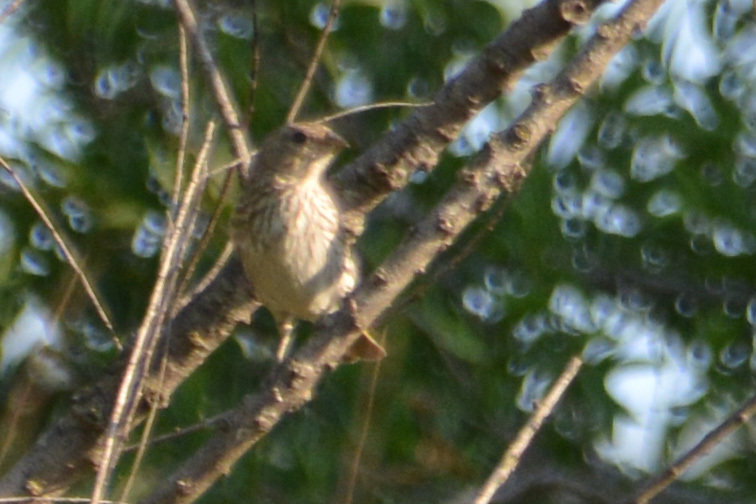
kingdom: Animalia
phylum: Chordata
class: Aves
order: Passeriformes
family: Thraupidae
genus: Sicalis
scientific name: Sicalis flaveola
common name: Saffron finch
